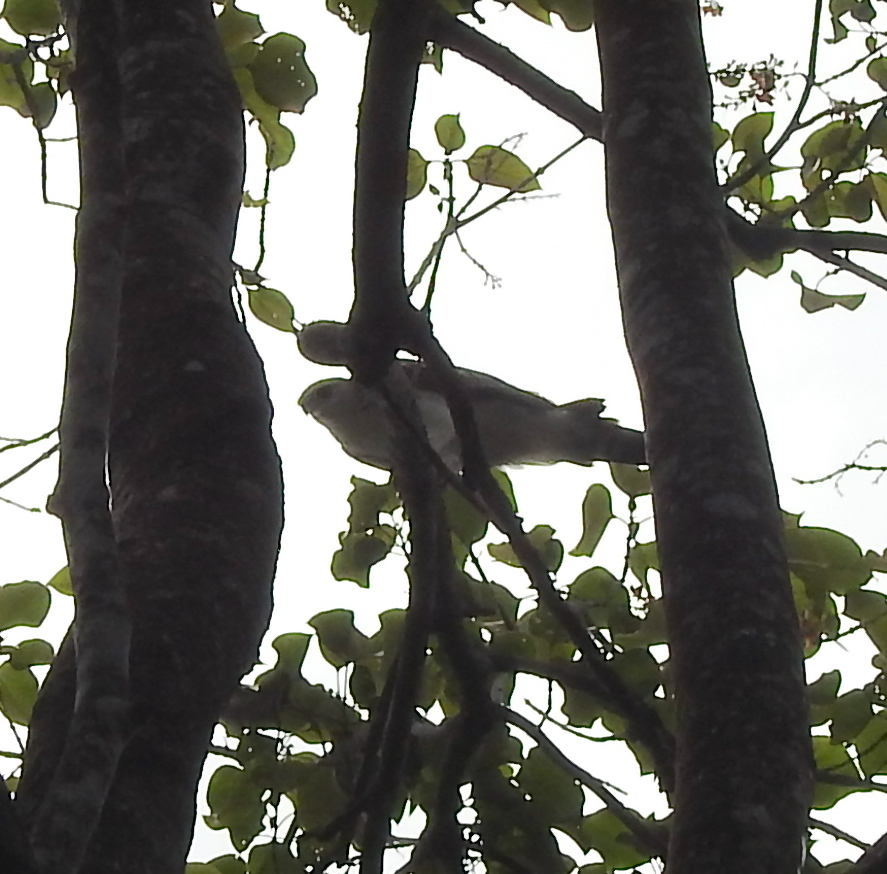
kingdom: Animalia
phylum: Chordata
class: Aves
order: Accipitriformes
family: Accipitridae
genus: Elanus
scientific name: Elanus caeruleus
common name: Black-winged kite
